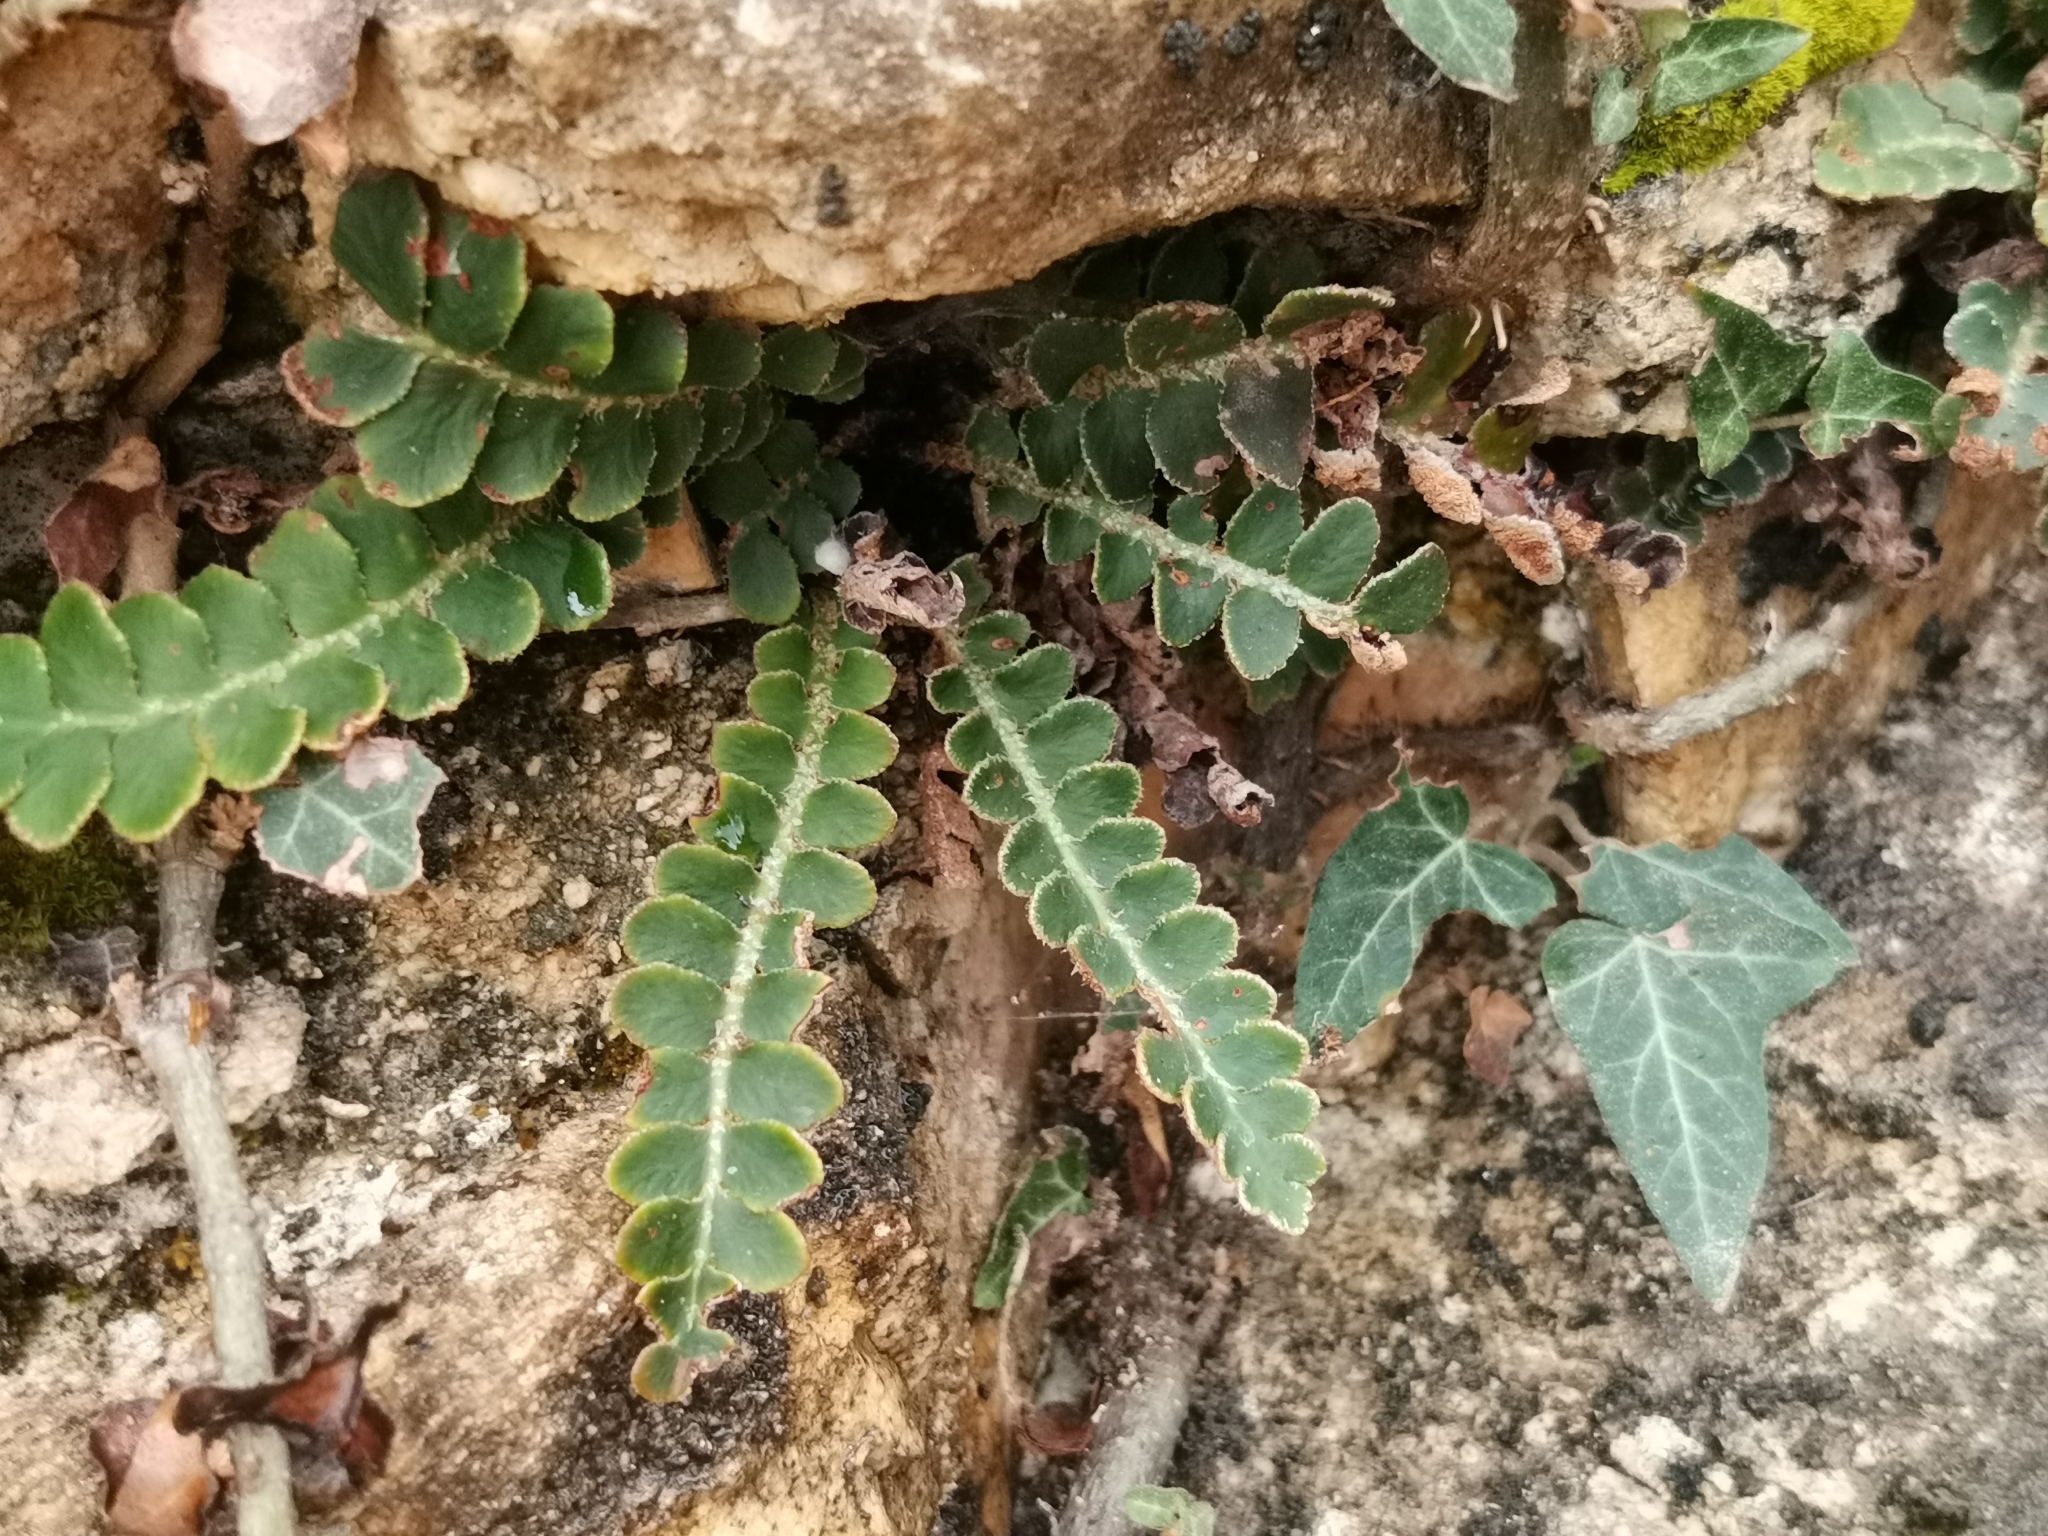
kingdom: Plantae
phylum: Tracheophyta
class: Polypodiopsida
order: Polypodiales
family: Aspleniaceae
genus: Asplenium
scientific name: Asplenium ceterach
